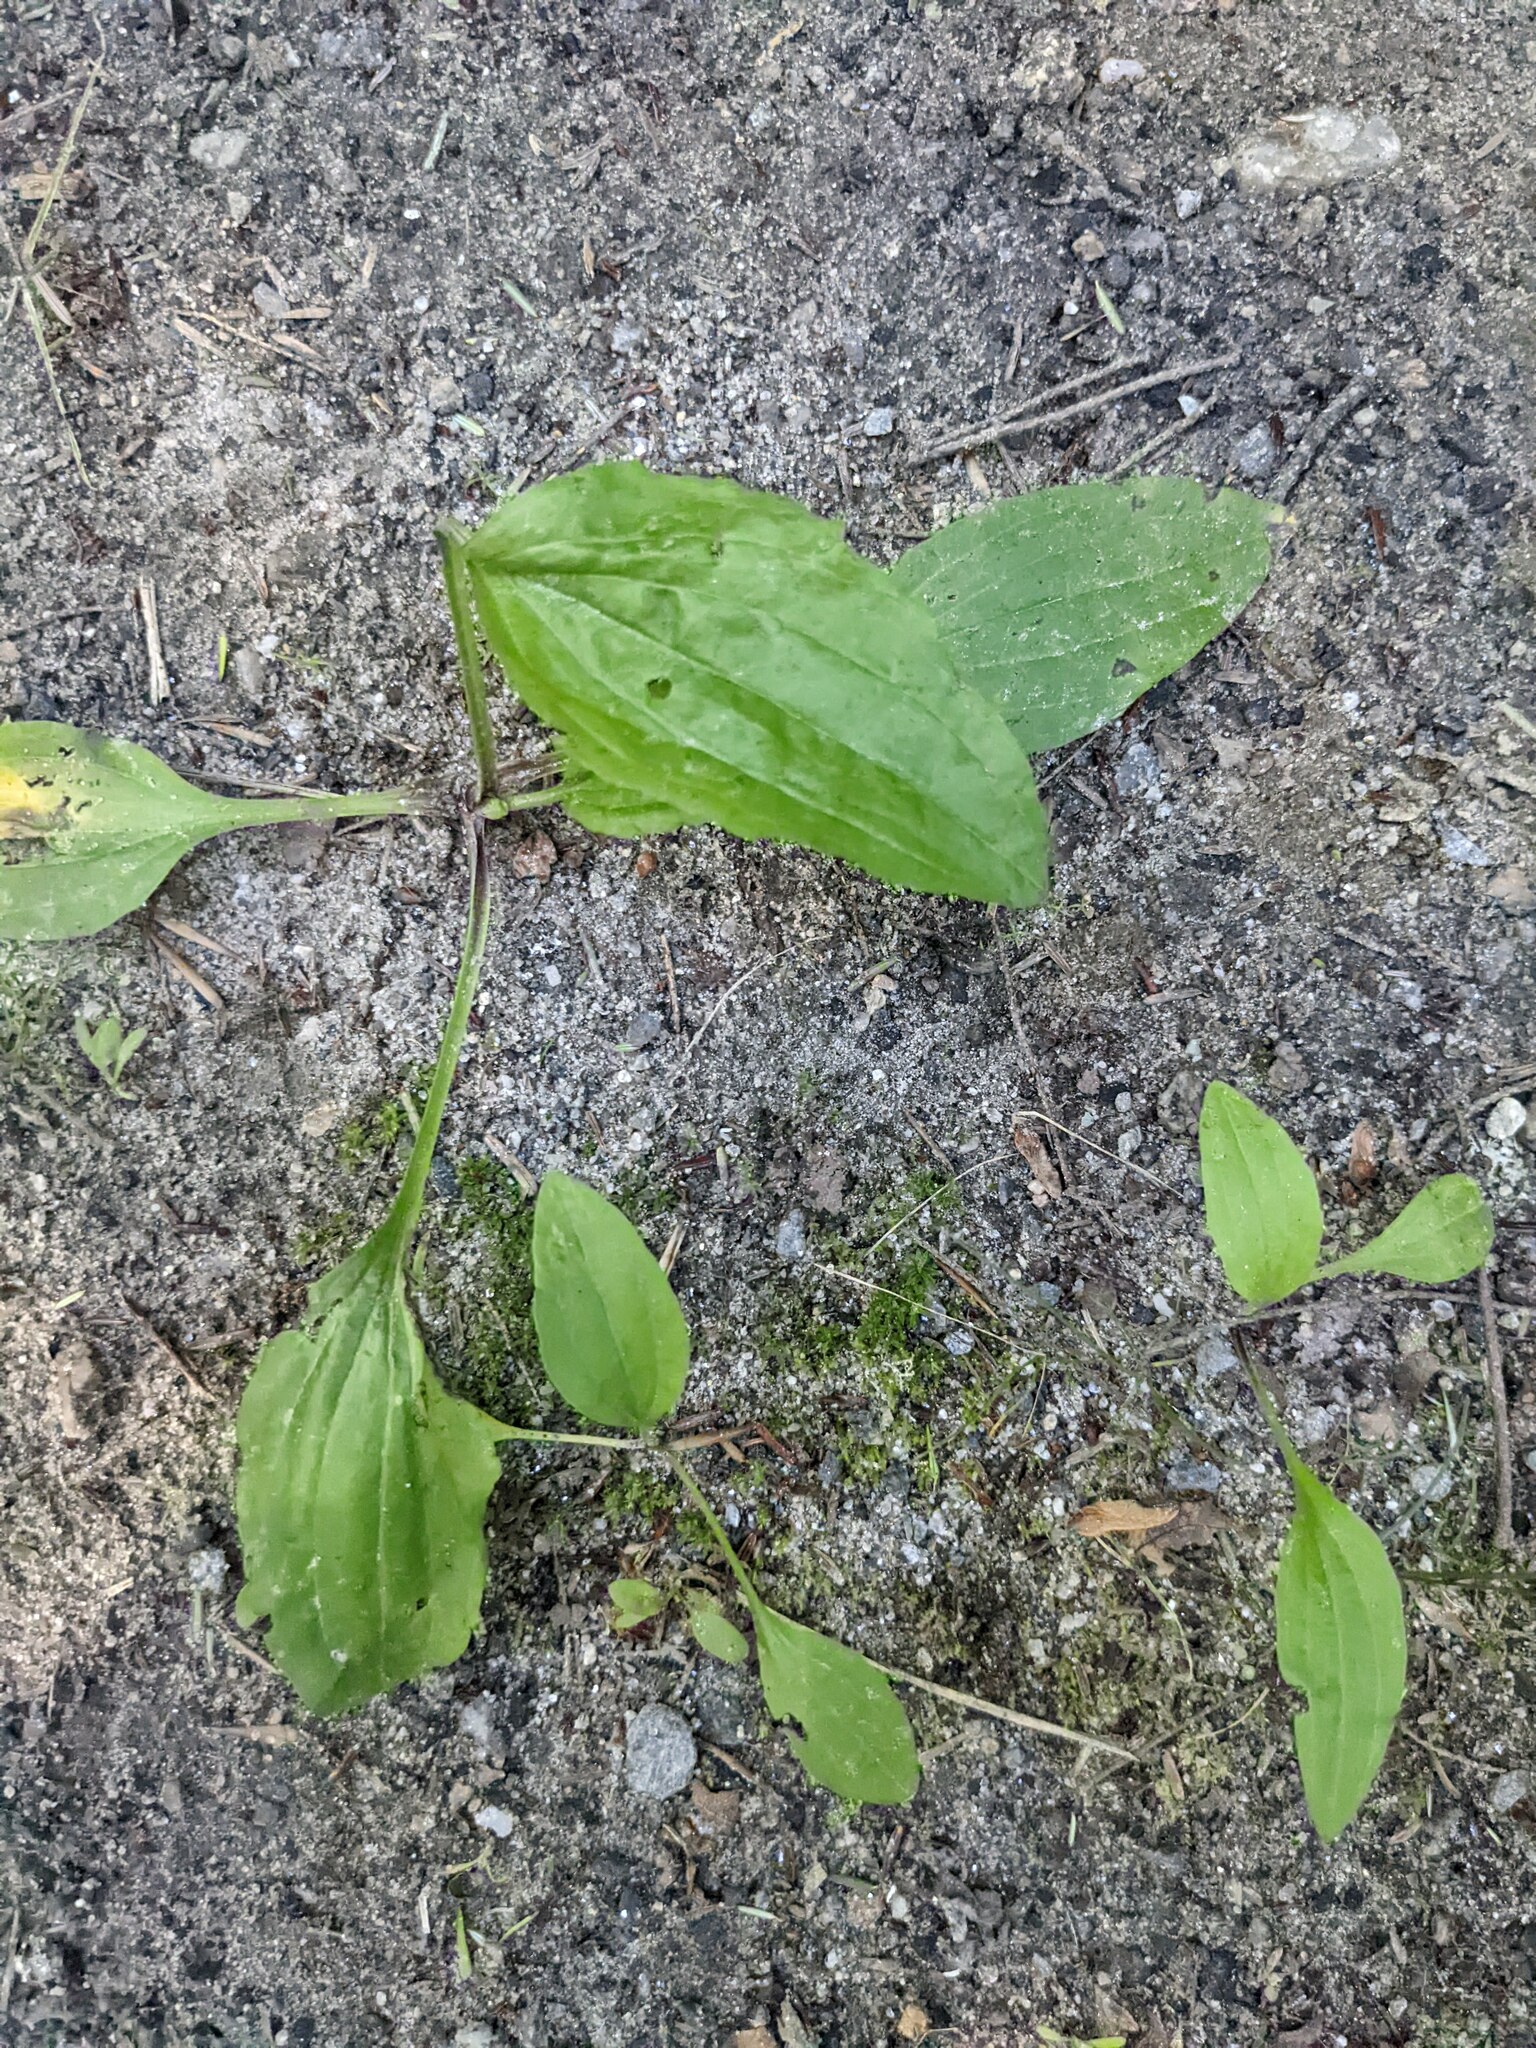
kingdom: Plantae
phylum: Tracheophyta
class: Magnoliopsida
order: Lamiales
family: Plantaginaceae
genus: Plantago
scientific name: Plantago rugelii
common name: American plantain
